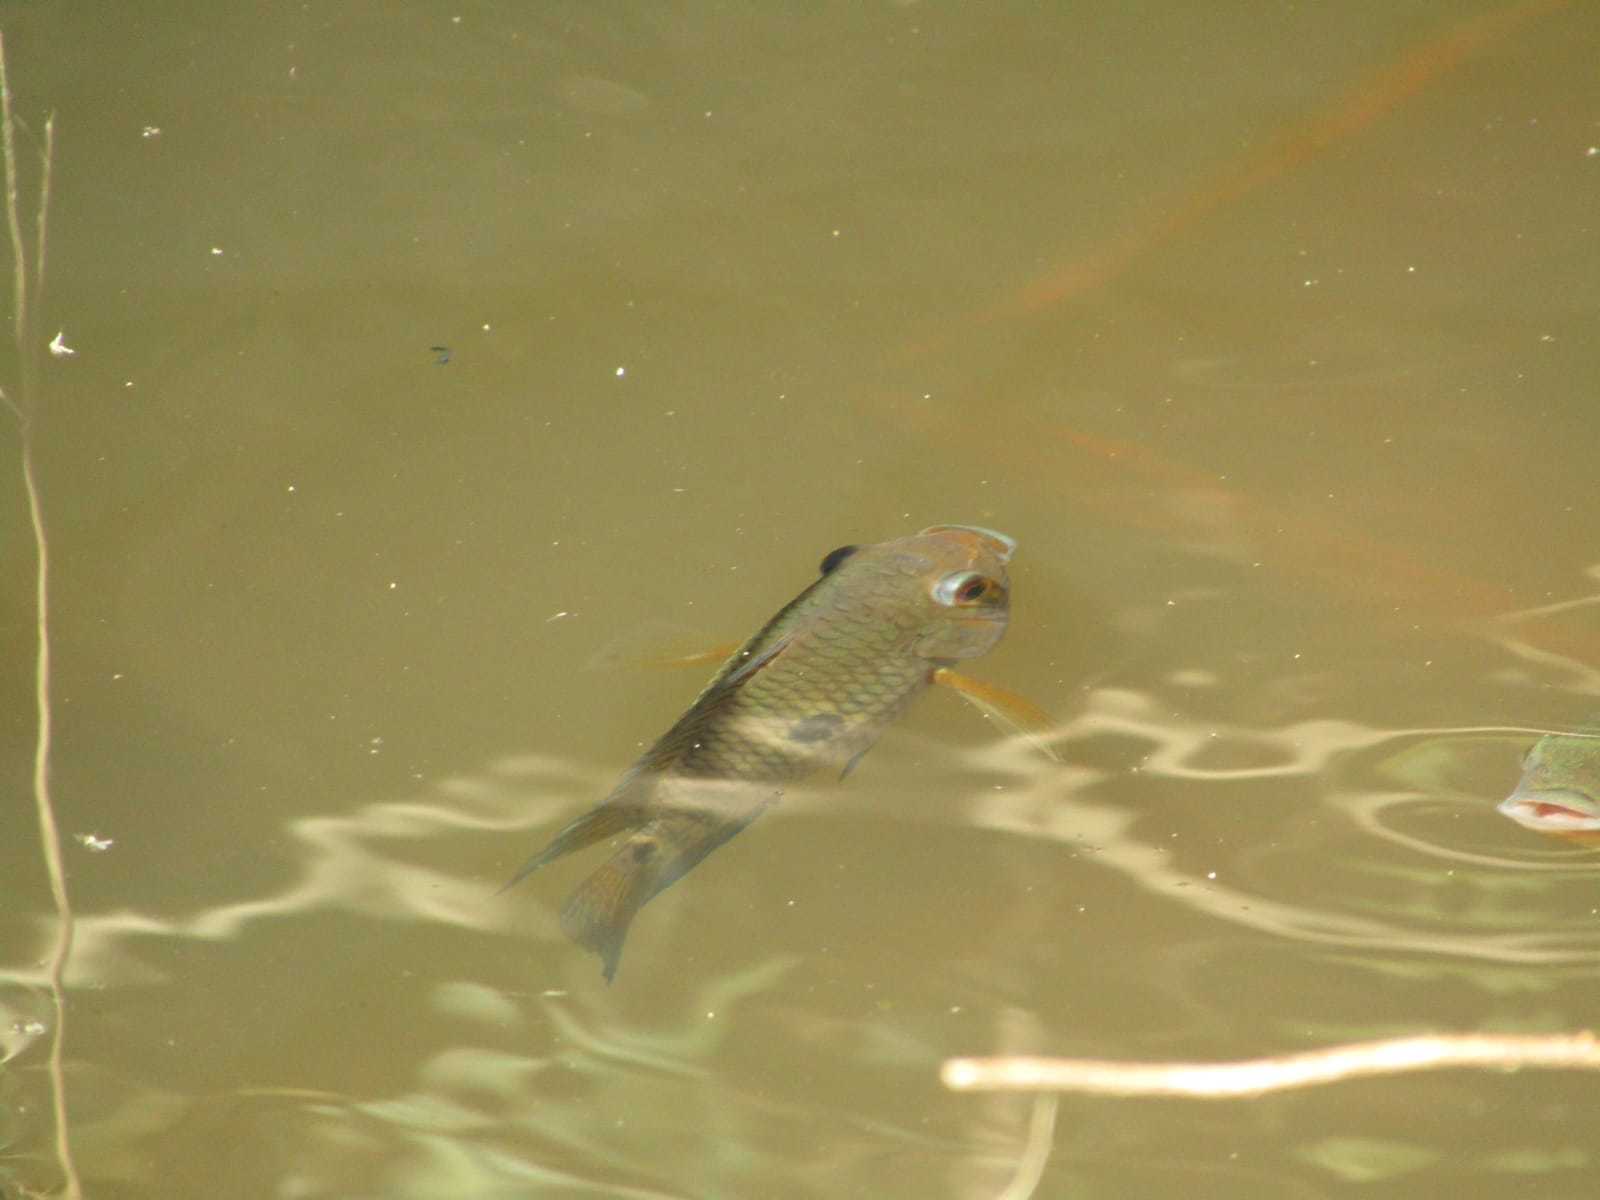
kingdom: Animalia
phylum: Chordata
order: Perciformes
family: Cichlidae
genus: Cichlasoma
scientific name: Cichlasoma orientale
